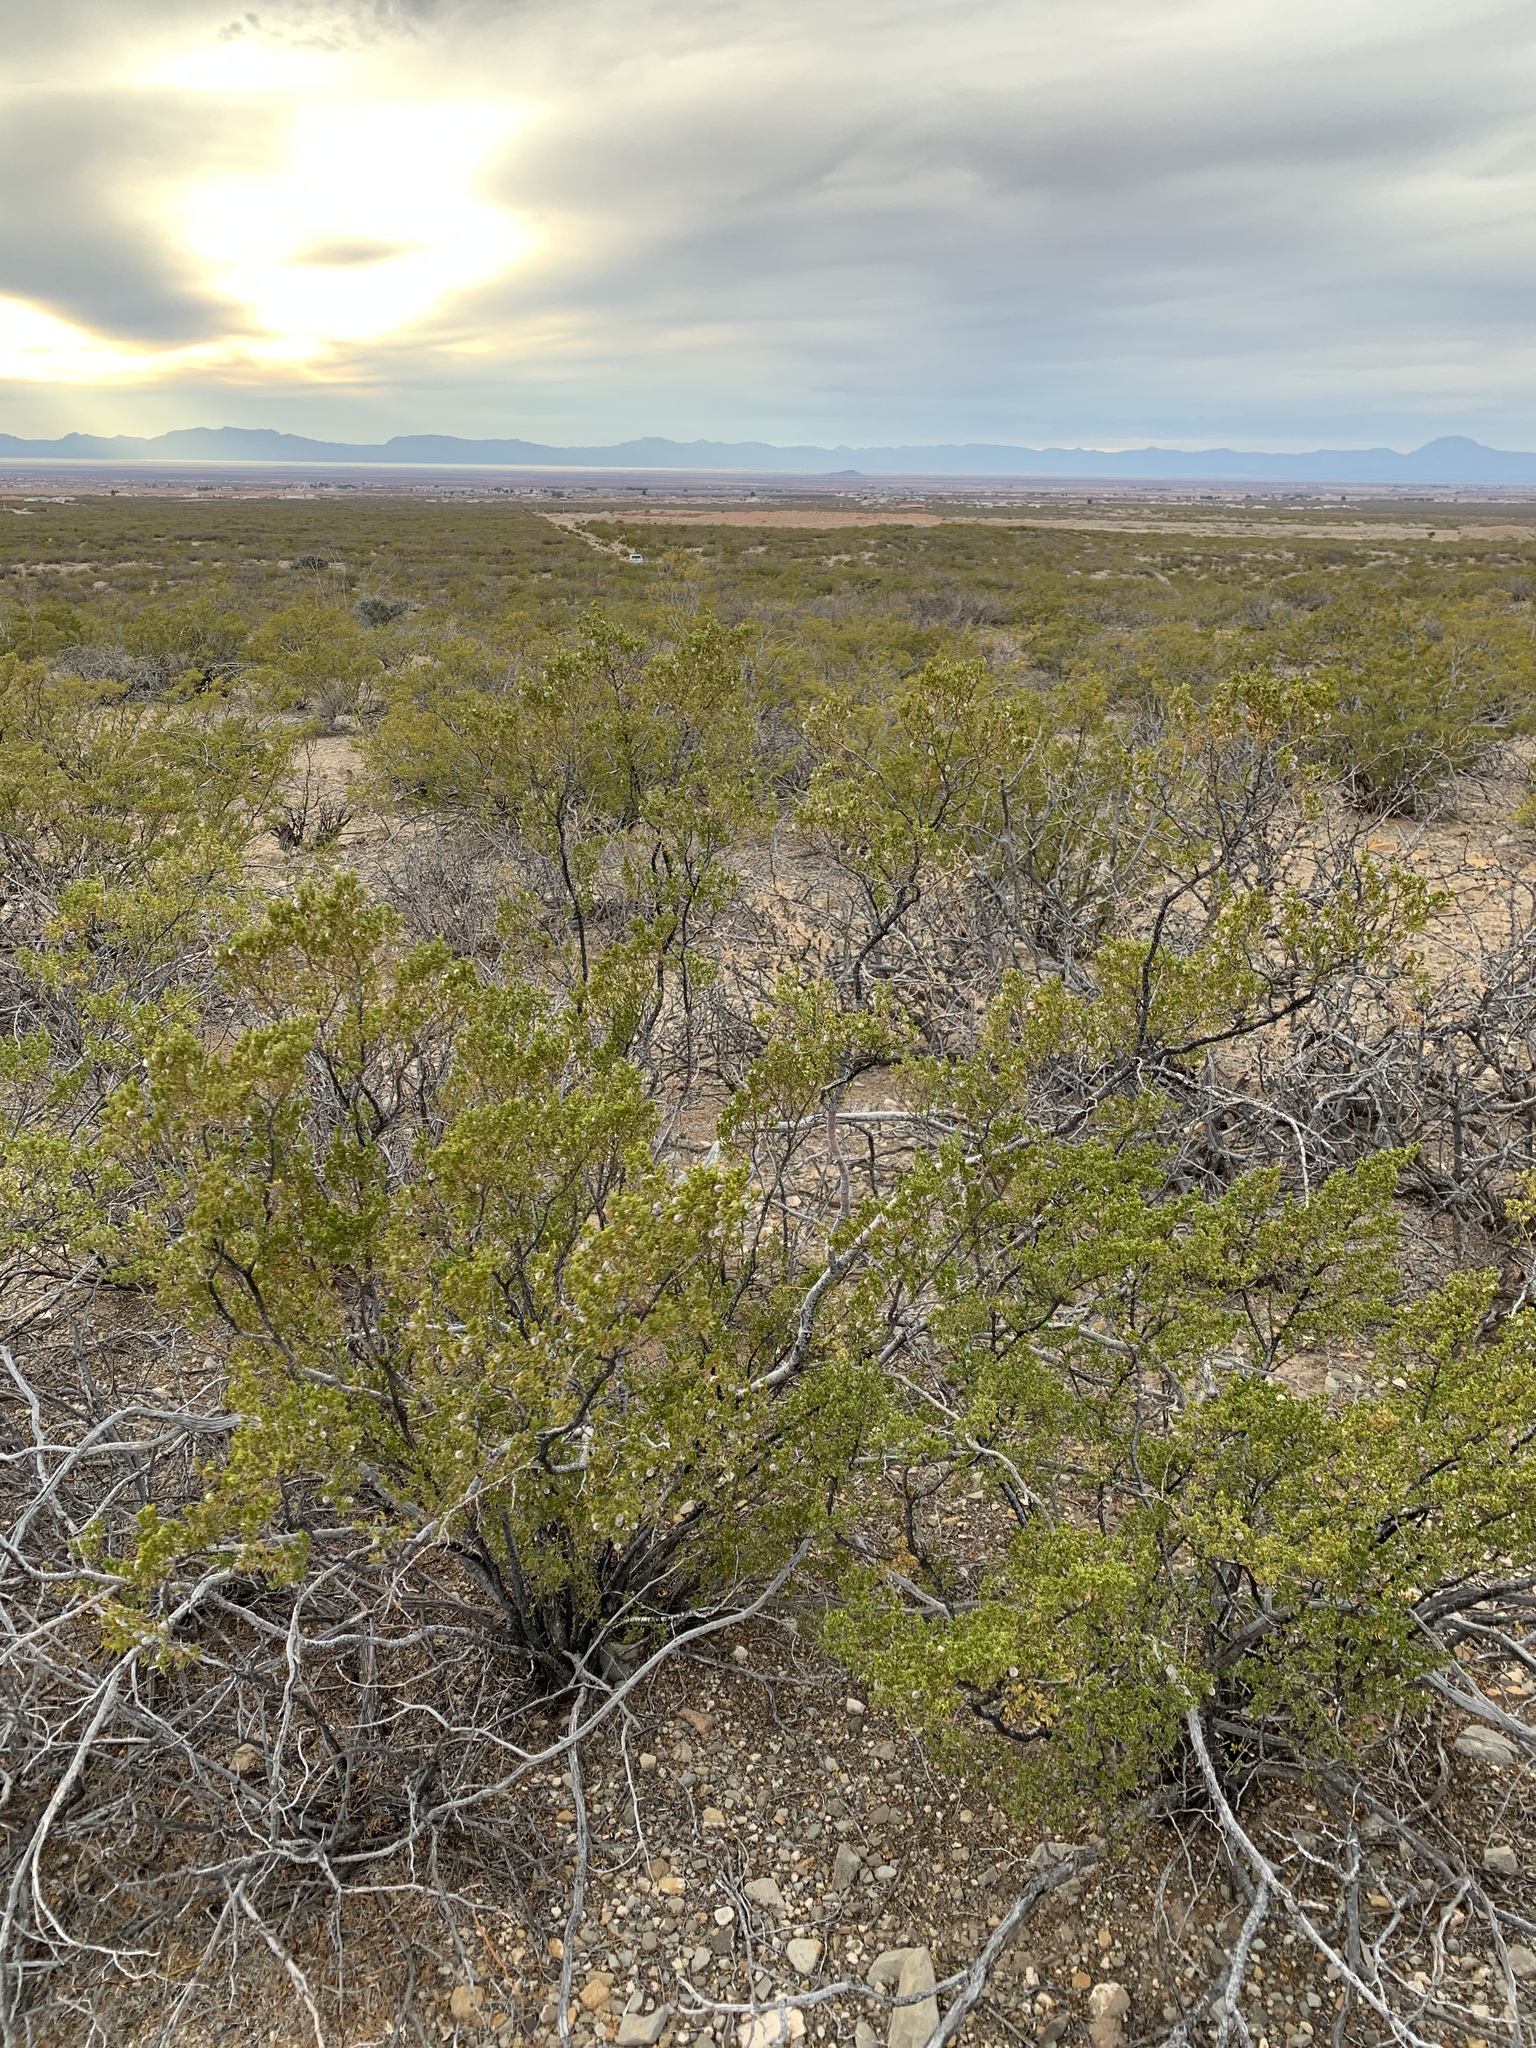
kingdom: Plantae
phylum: Tracheophyta
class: Magnoliopsida
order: Zygophyllales
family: Zygophyllaceae
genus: Larrea
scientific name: Larrea tridentata
